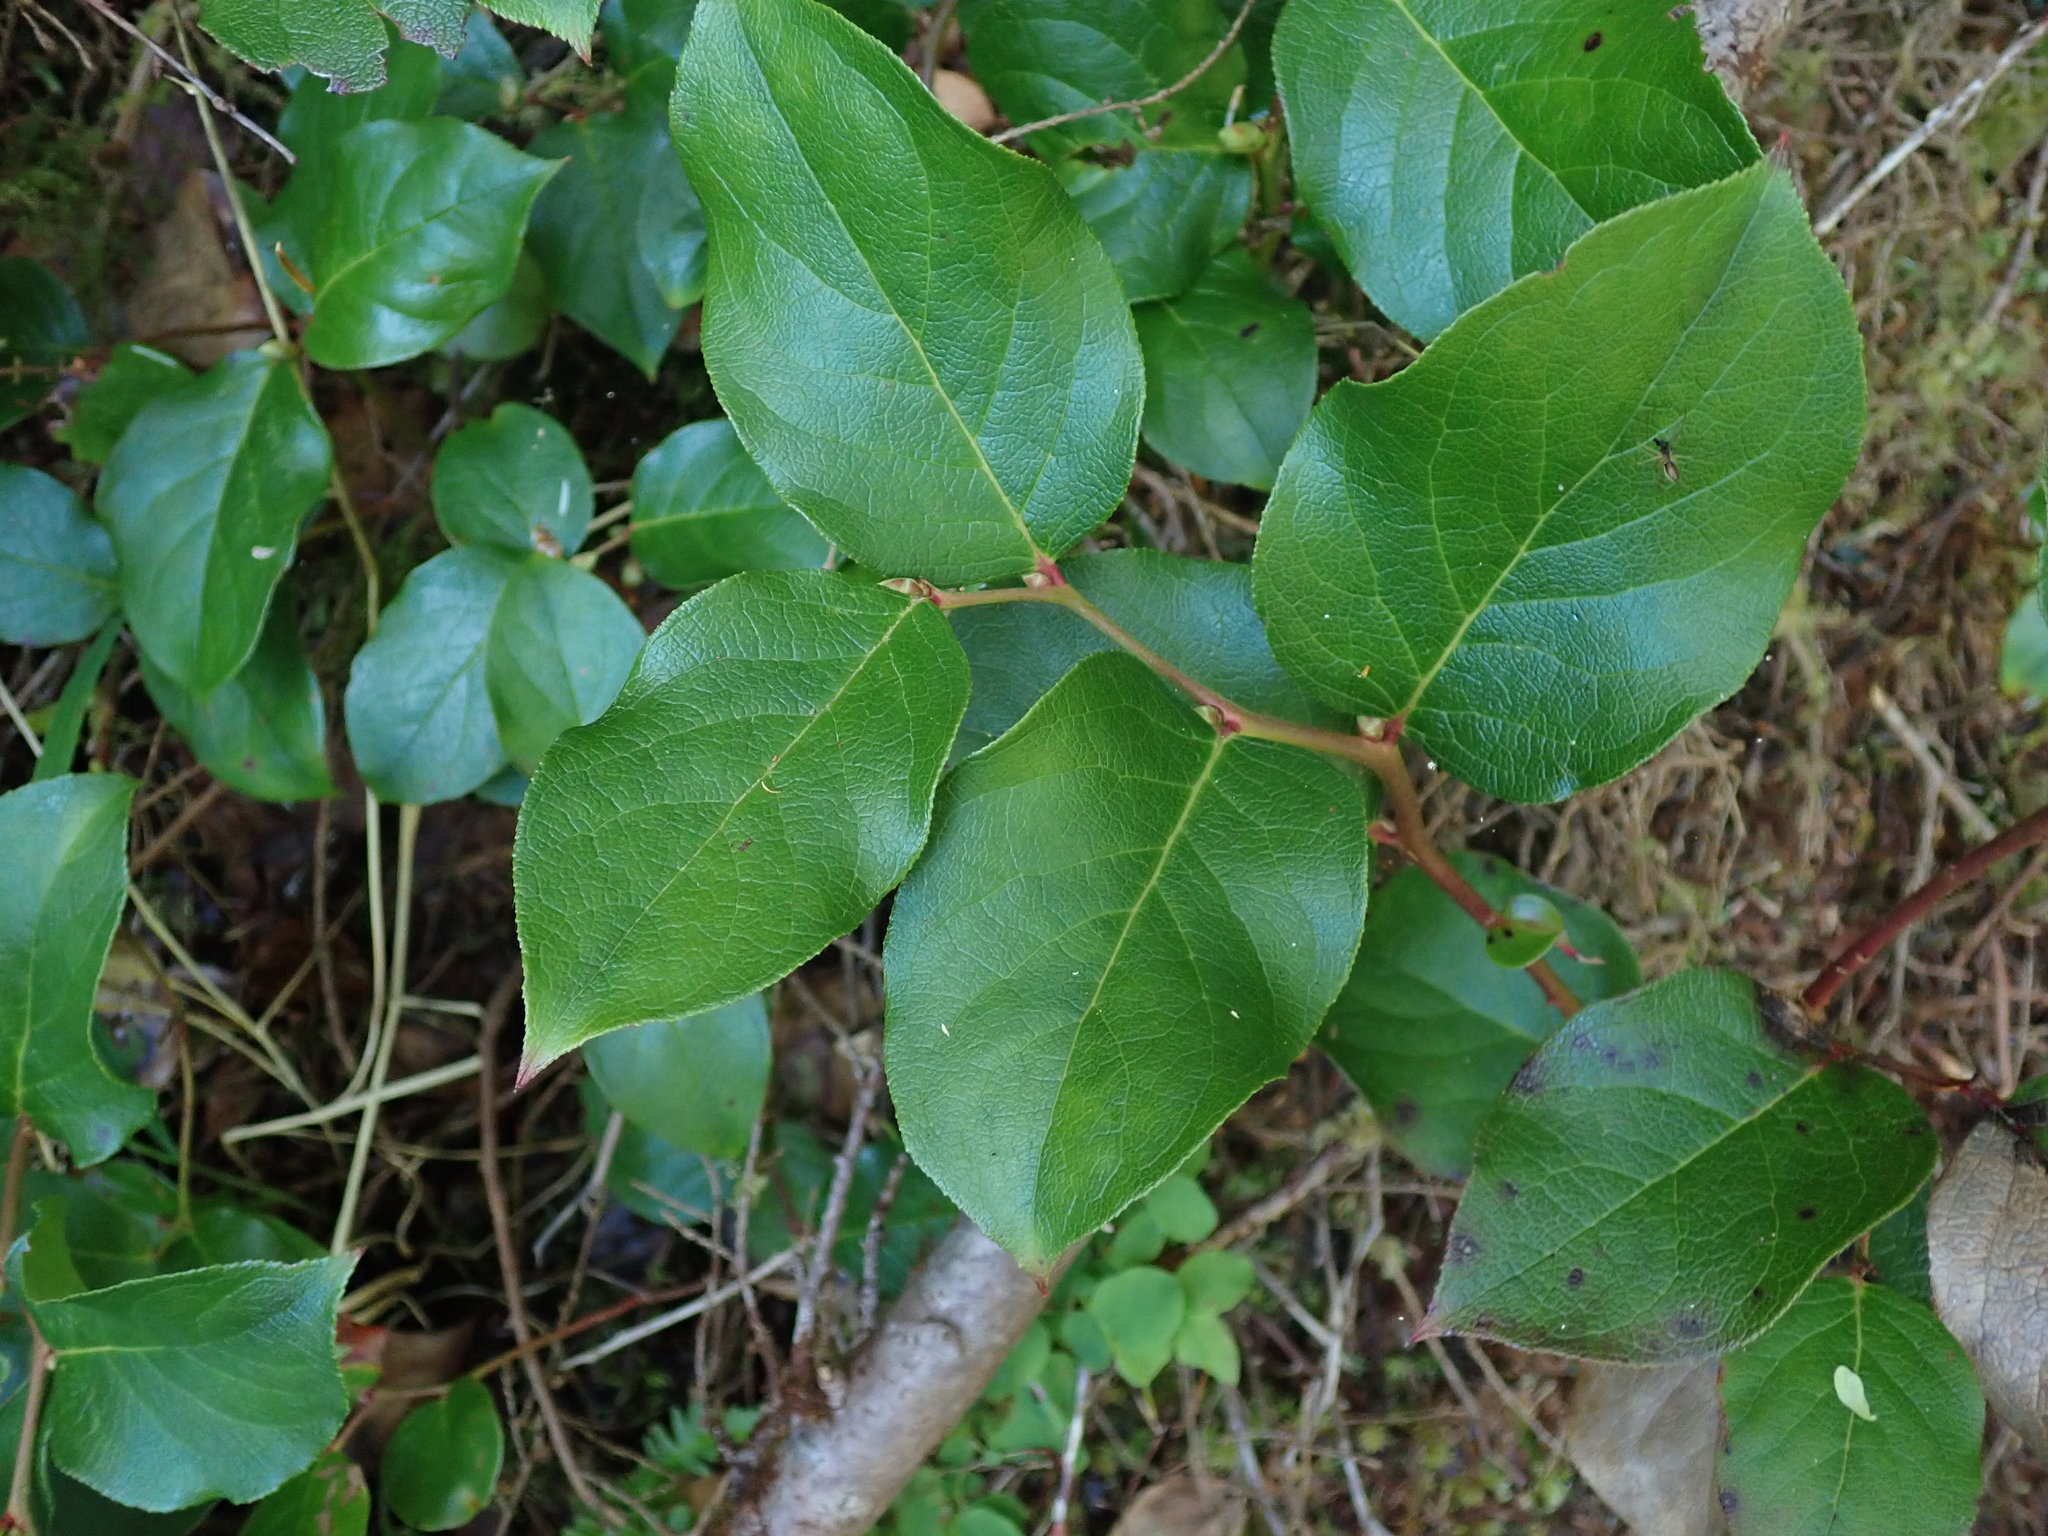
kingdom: Plantae
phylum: Tracheophyta
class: Magnoliopsida
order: Ericales
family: Ericaceae
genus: Gaultheria
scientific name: Gaultheria shallon
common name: Shallon
